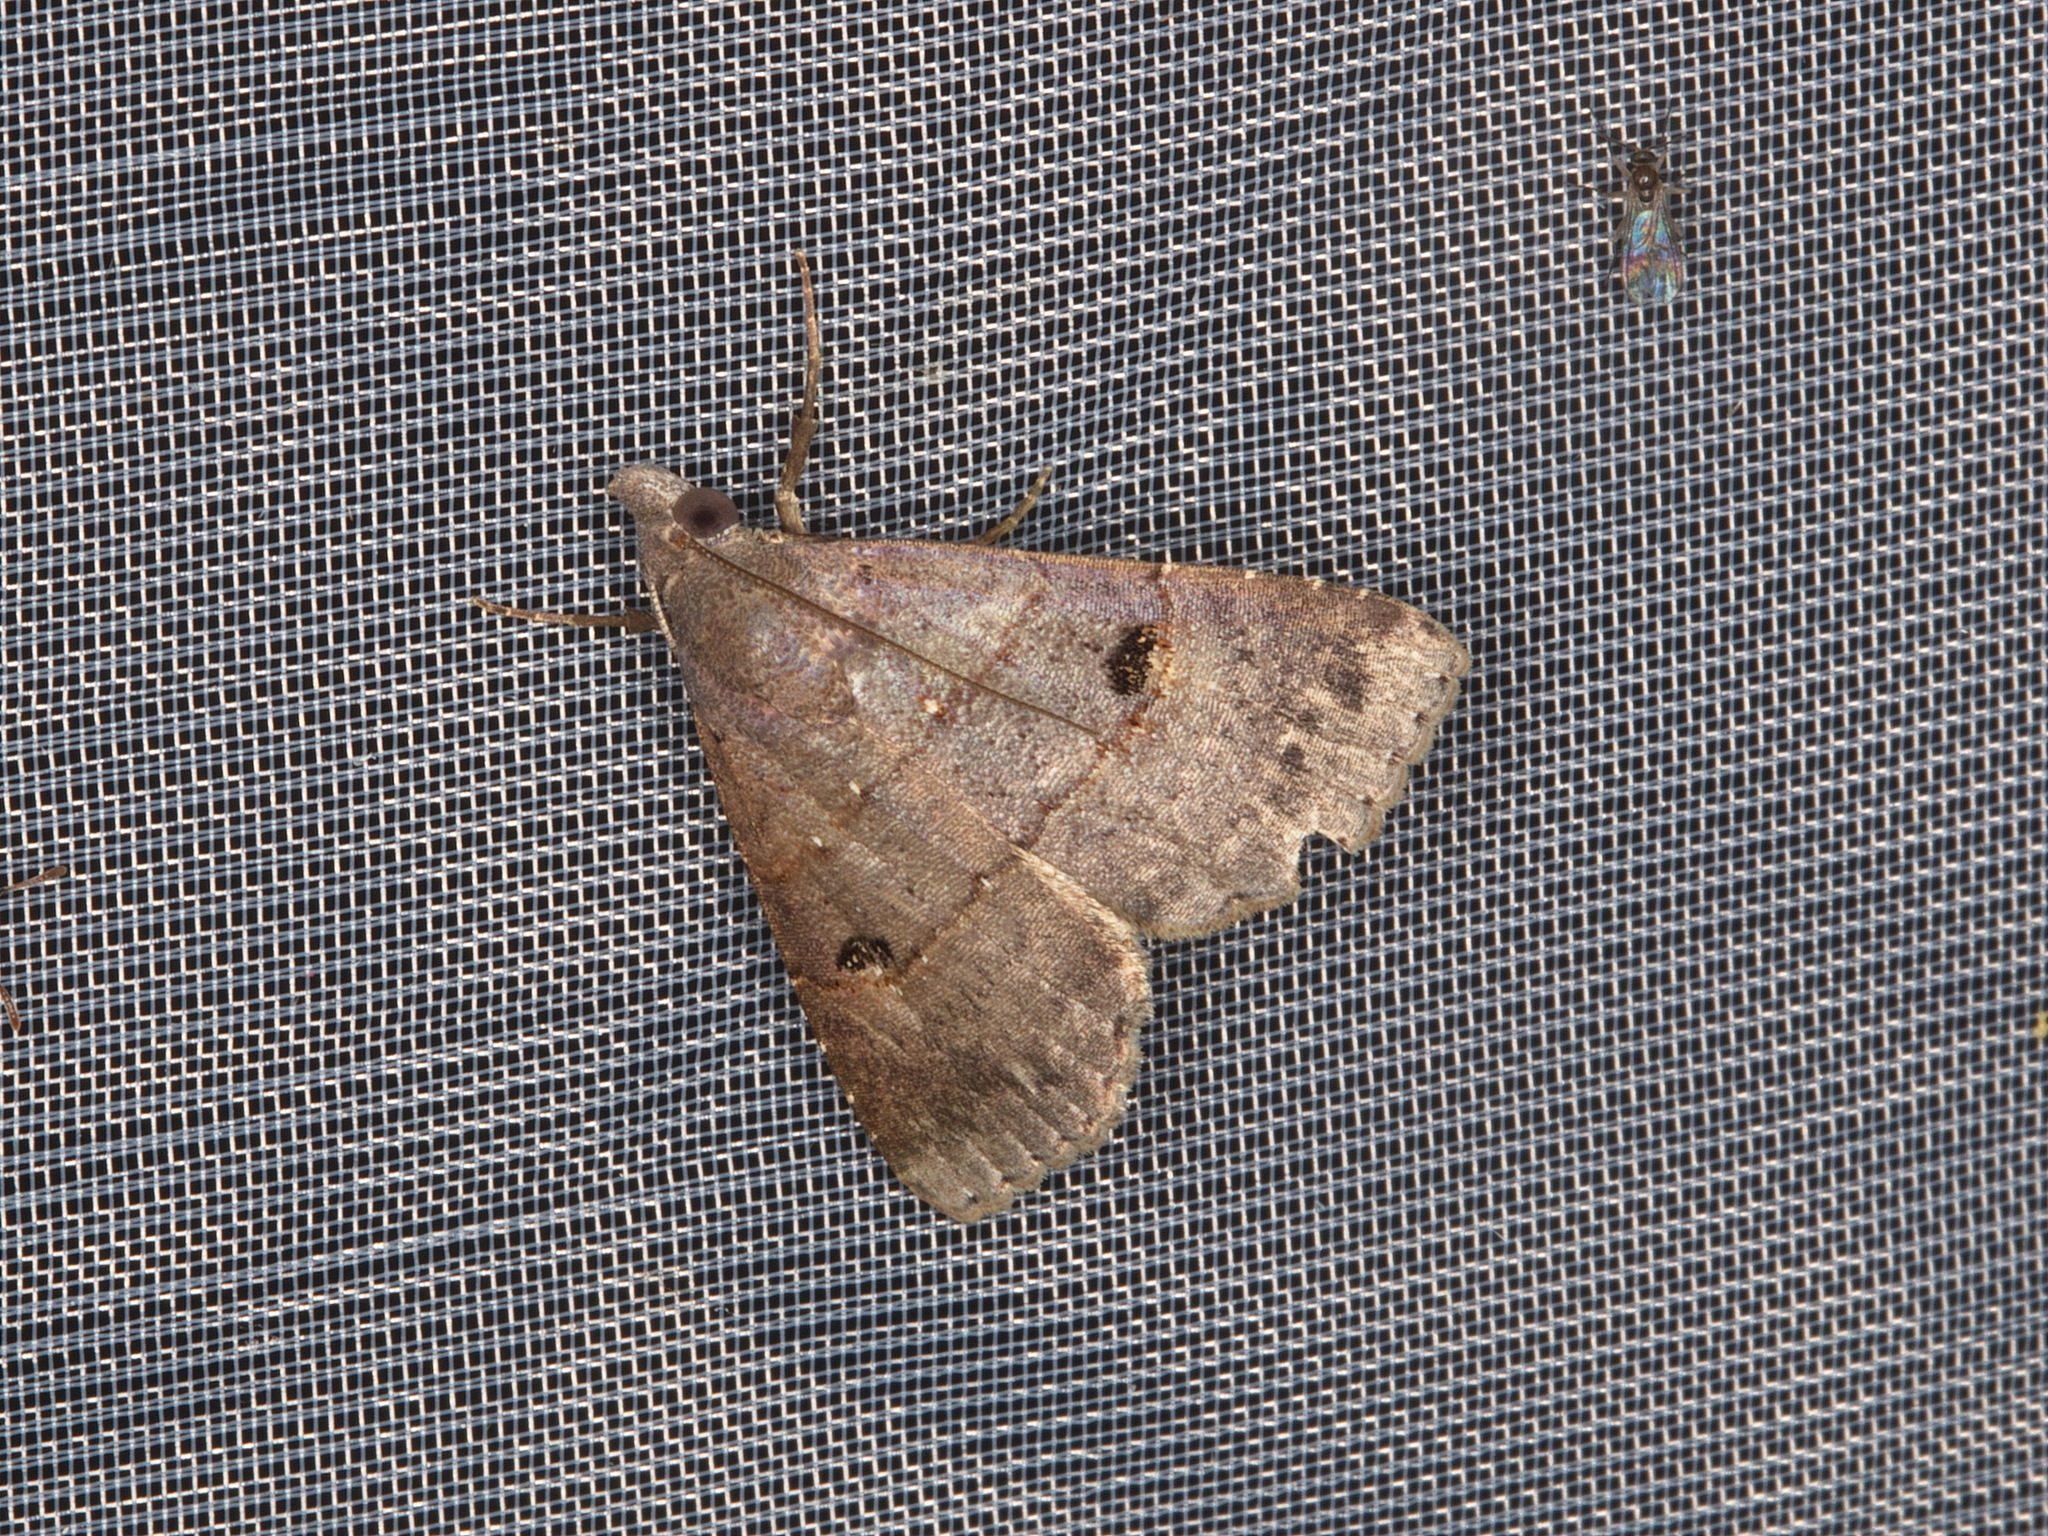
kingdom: Animalia
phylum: Arthropoda
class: Insecta
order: Lepidoptera
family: Noctuidae
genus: Hormoschista
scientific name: Hormoschista latipalpis
